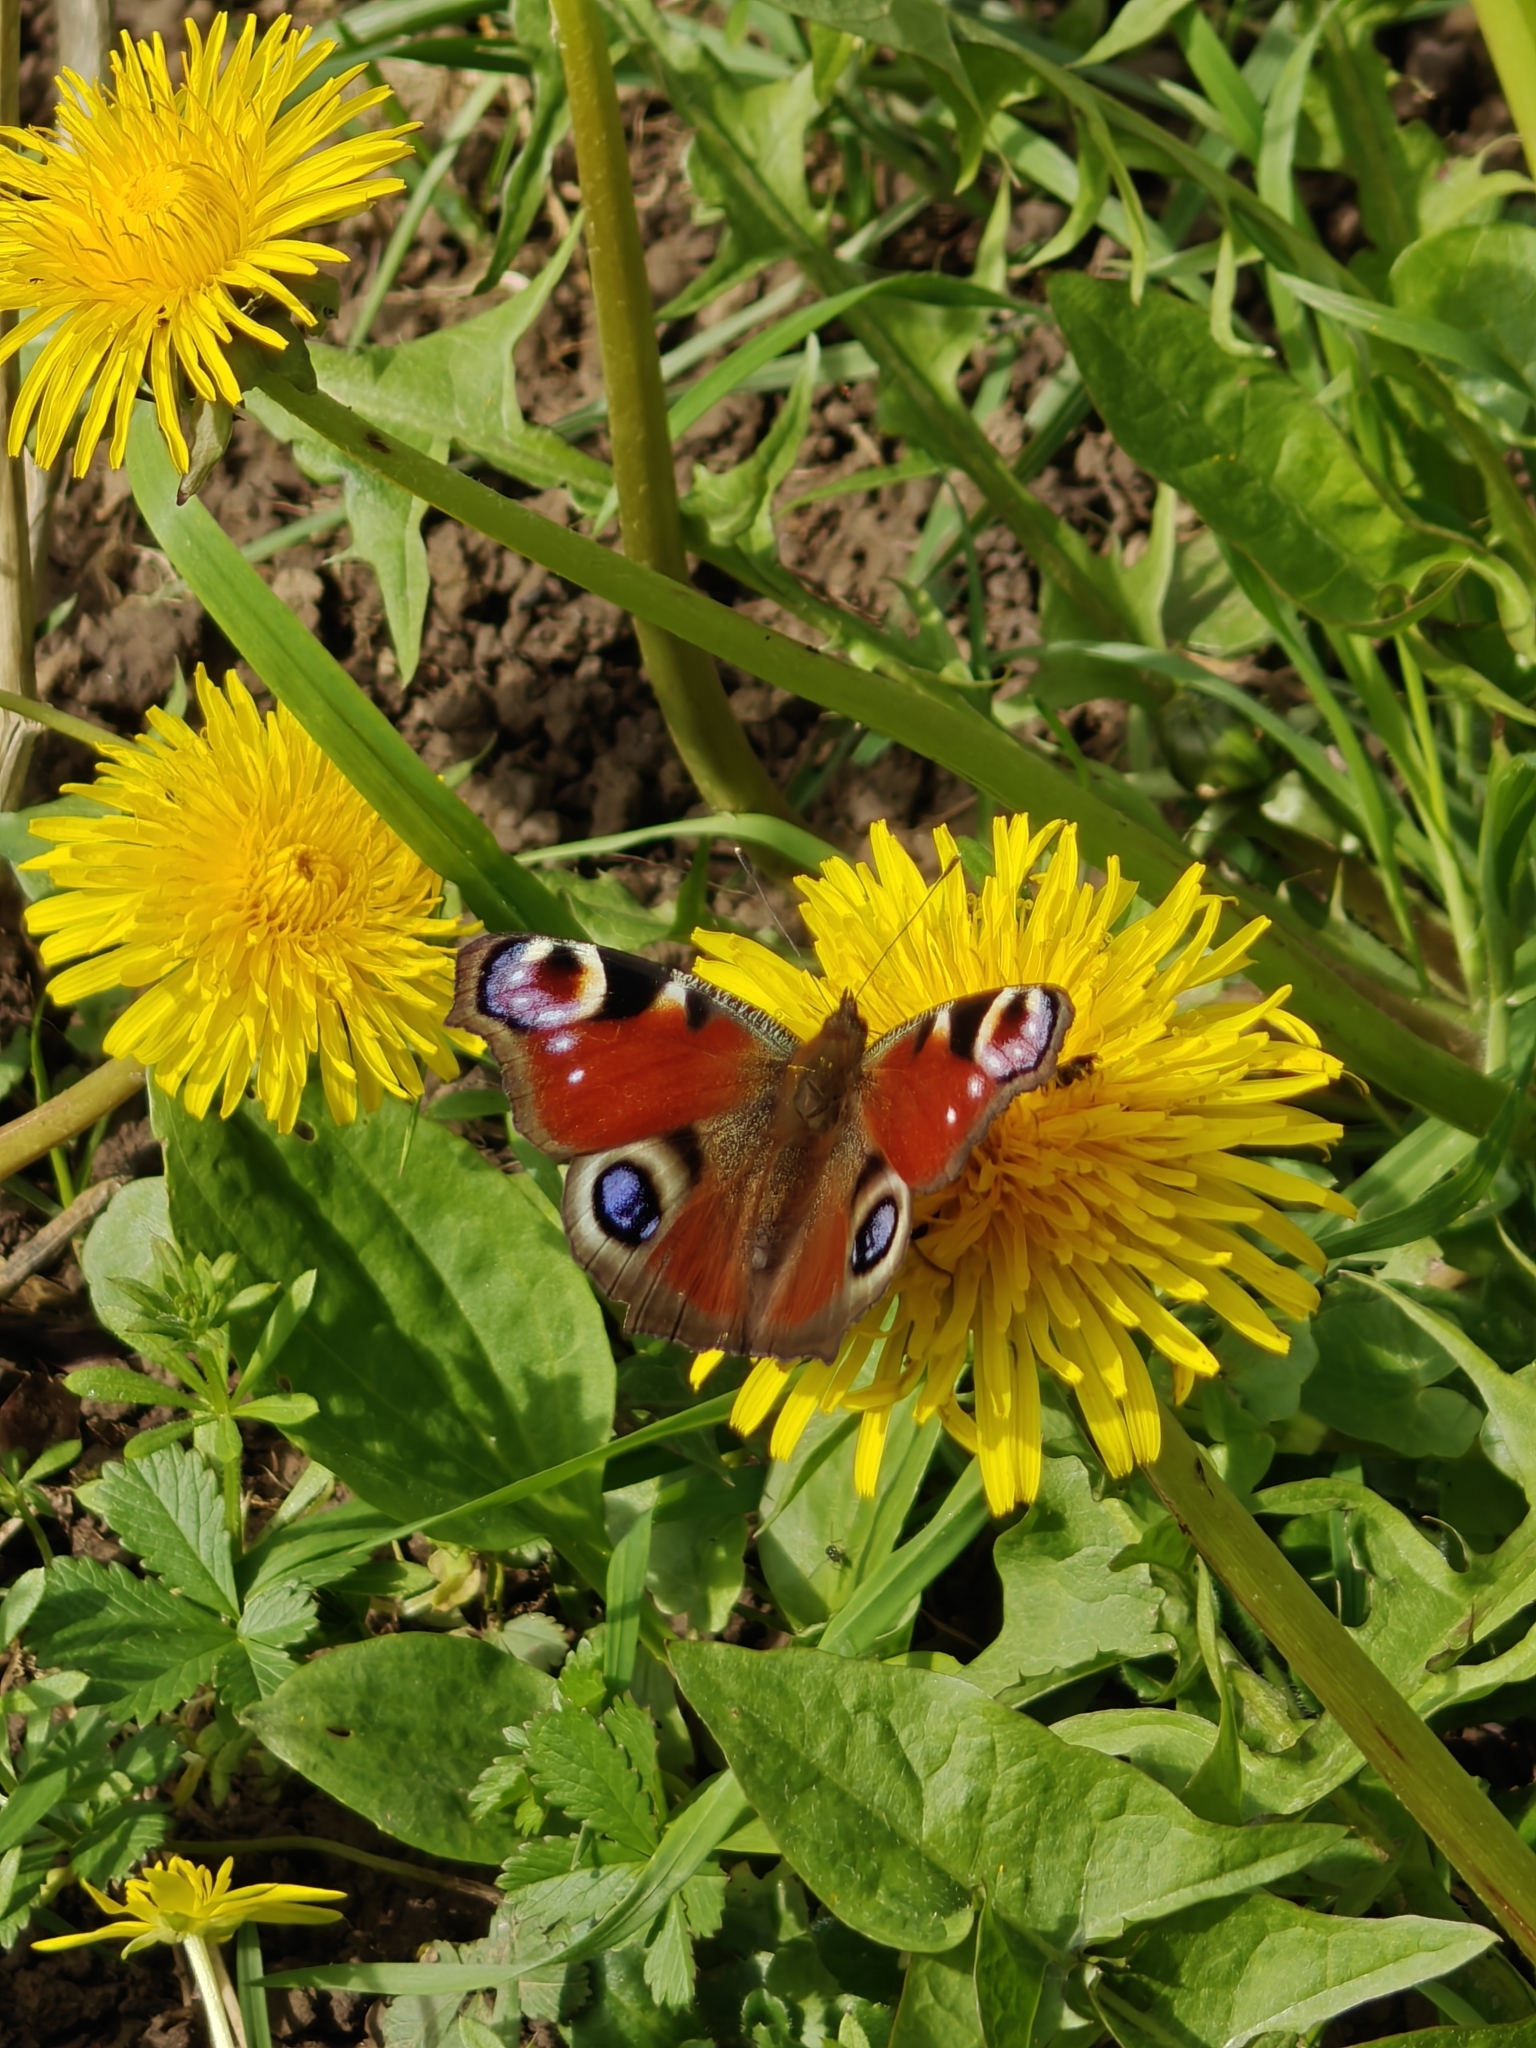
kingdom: Animalia
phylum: Arthropoda
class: Insecta
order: Lepidoptera
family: Nymphalidae
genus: Aglais
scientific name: Aglais io
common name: Peacock
